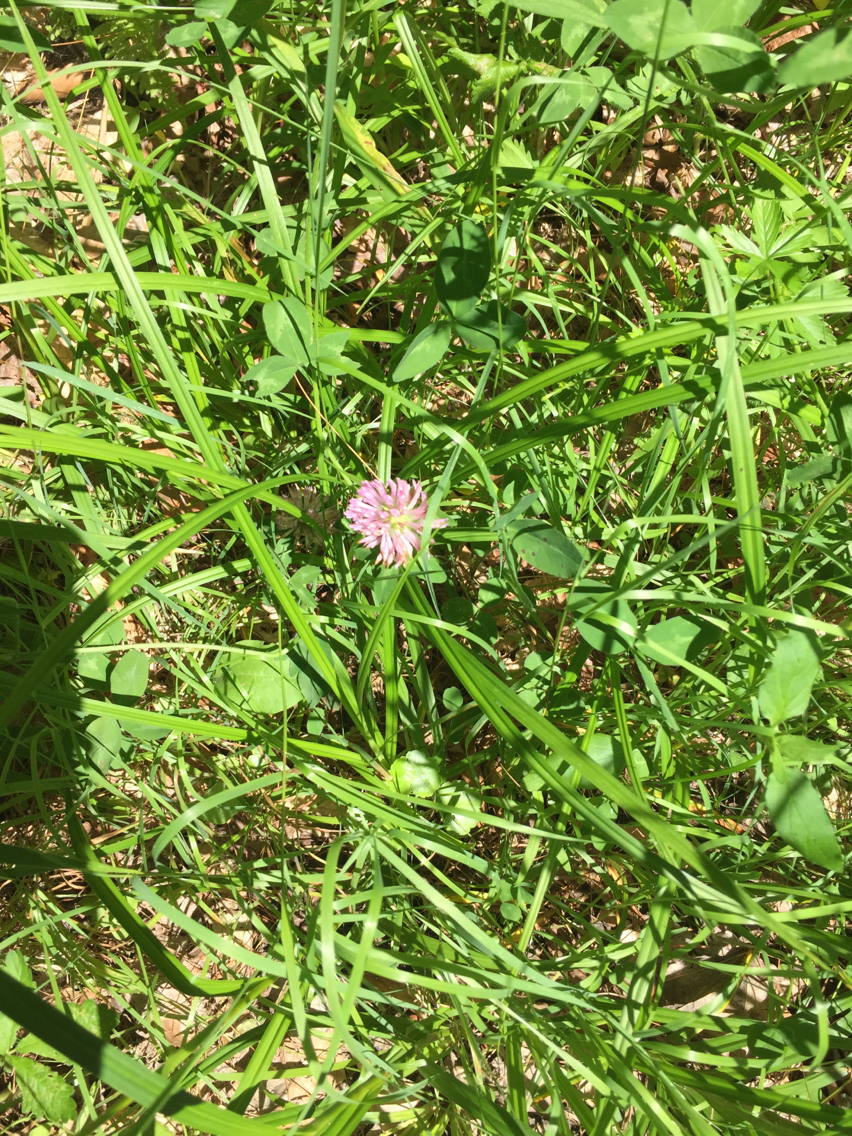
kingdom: Plantae
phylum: Tracheophyta
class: Magnoliopsida
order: Fabales
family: Fabaceae
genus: Trifolium
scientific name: Trifolium pratense
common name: Red clover
